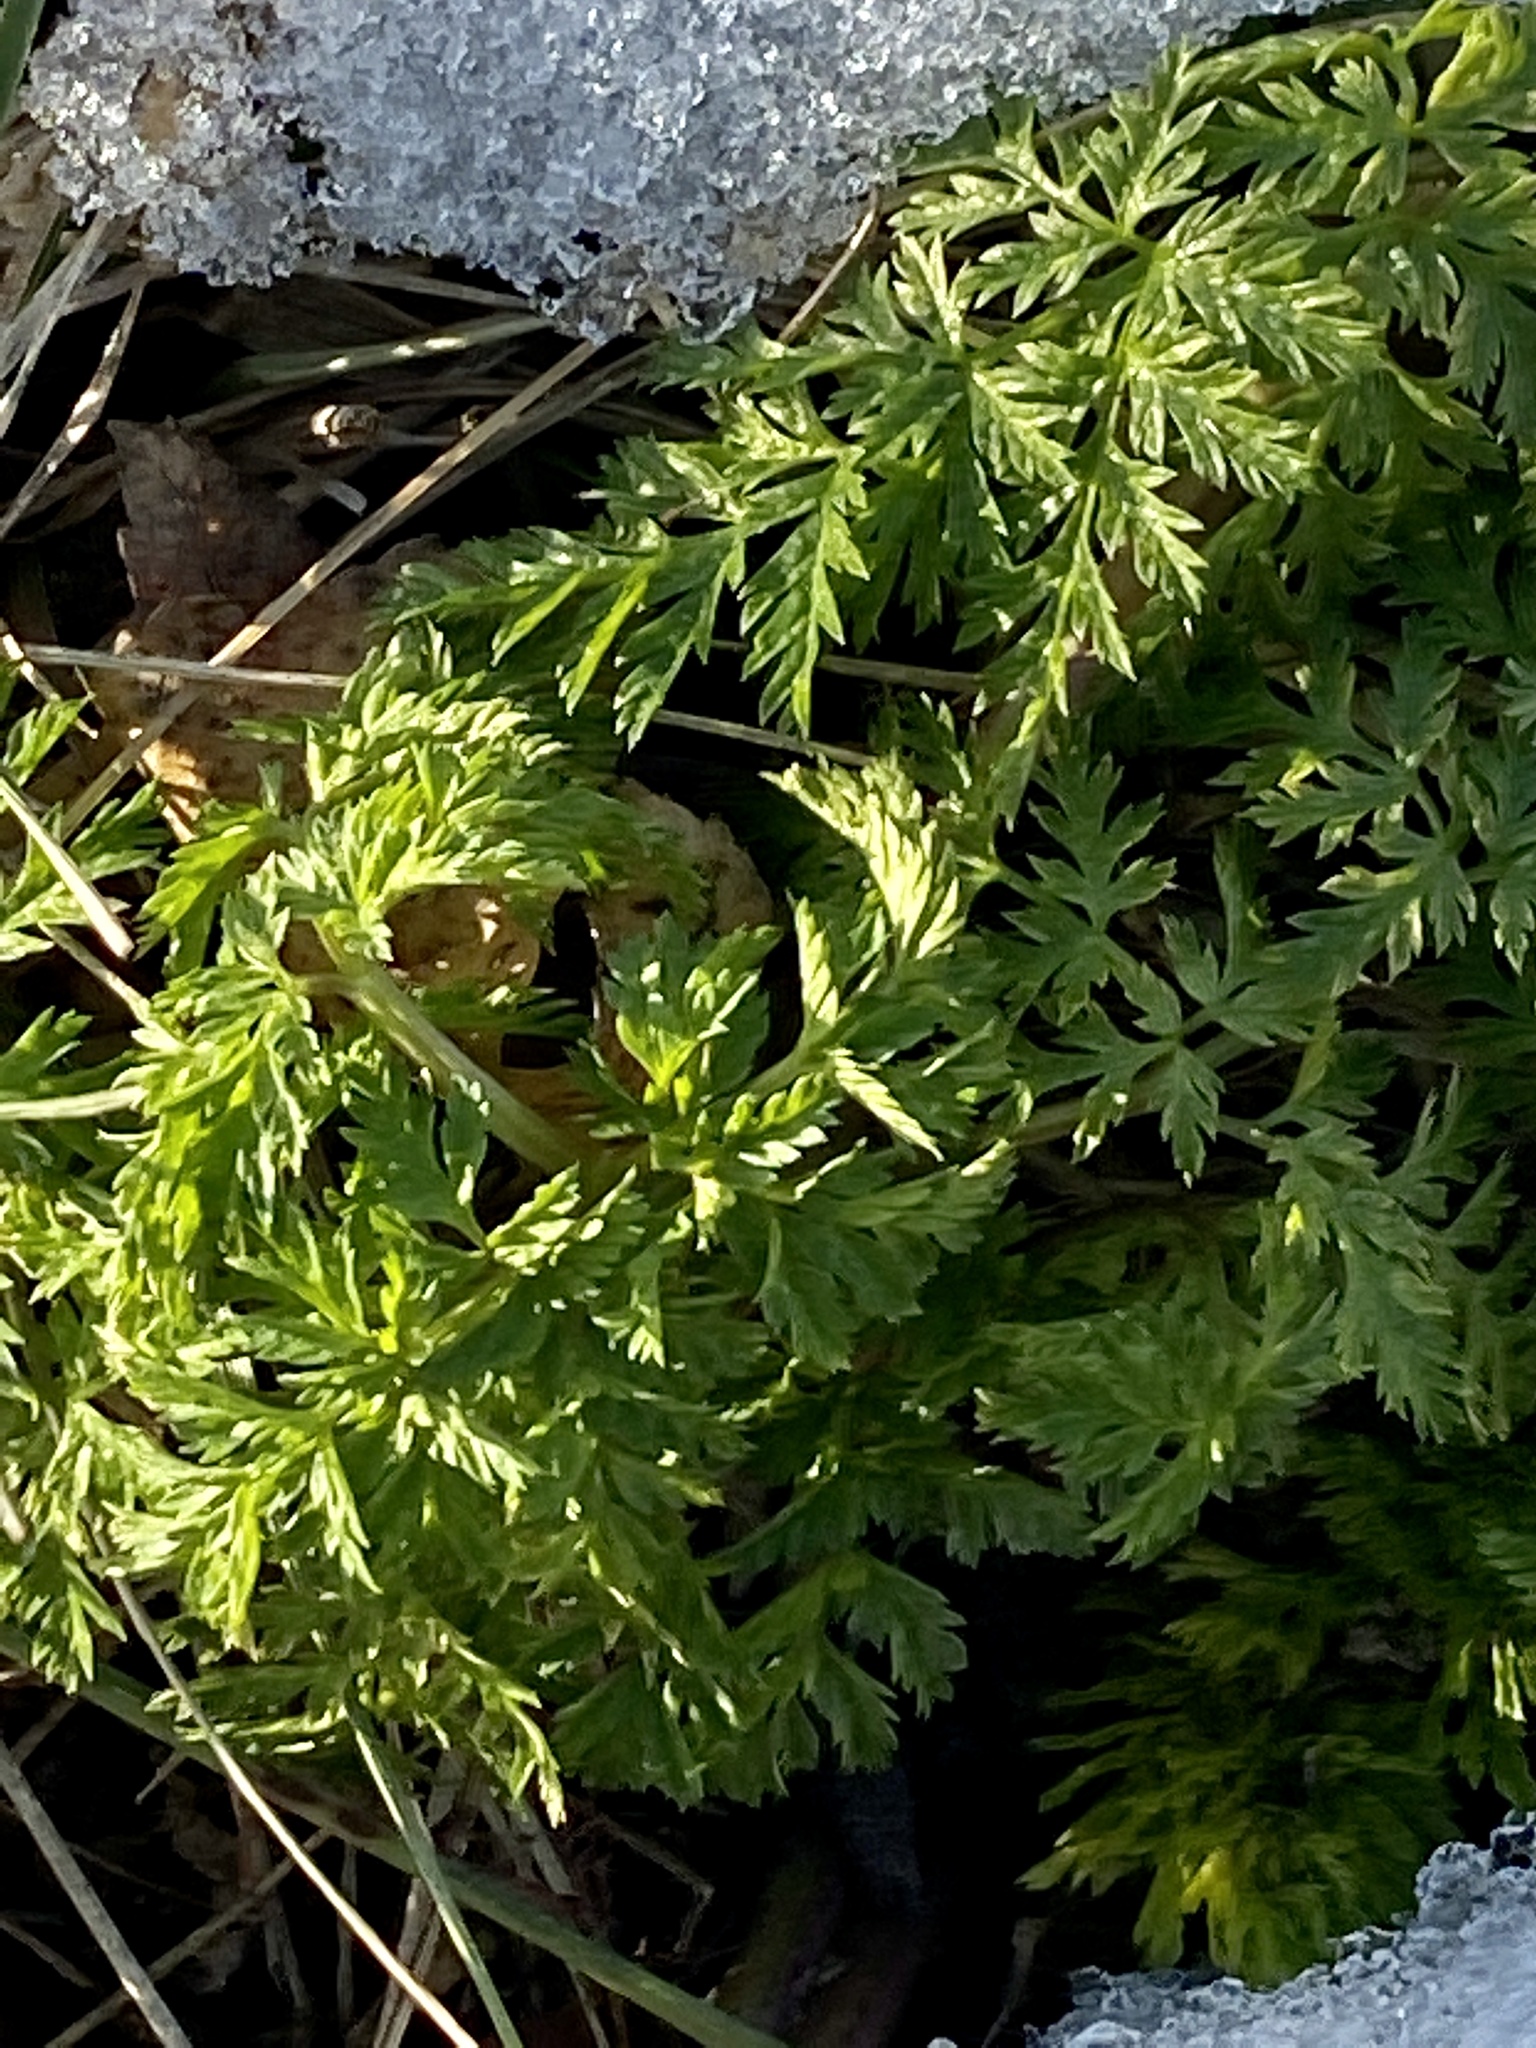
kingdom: Plantae
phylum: Tracheophyta
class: Magnoliopsida
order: Apiales
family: Apiaceae
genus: Conium
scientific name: Conium maculatum
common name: Hemlock
